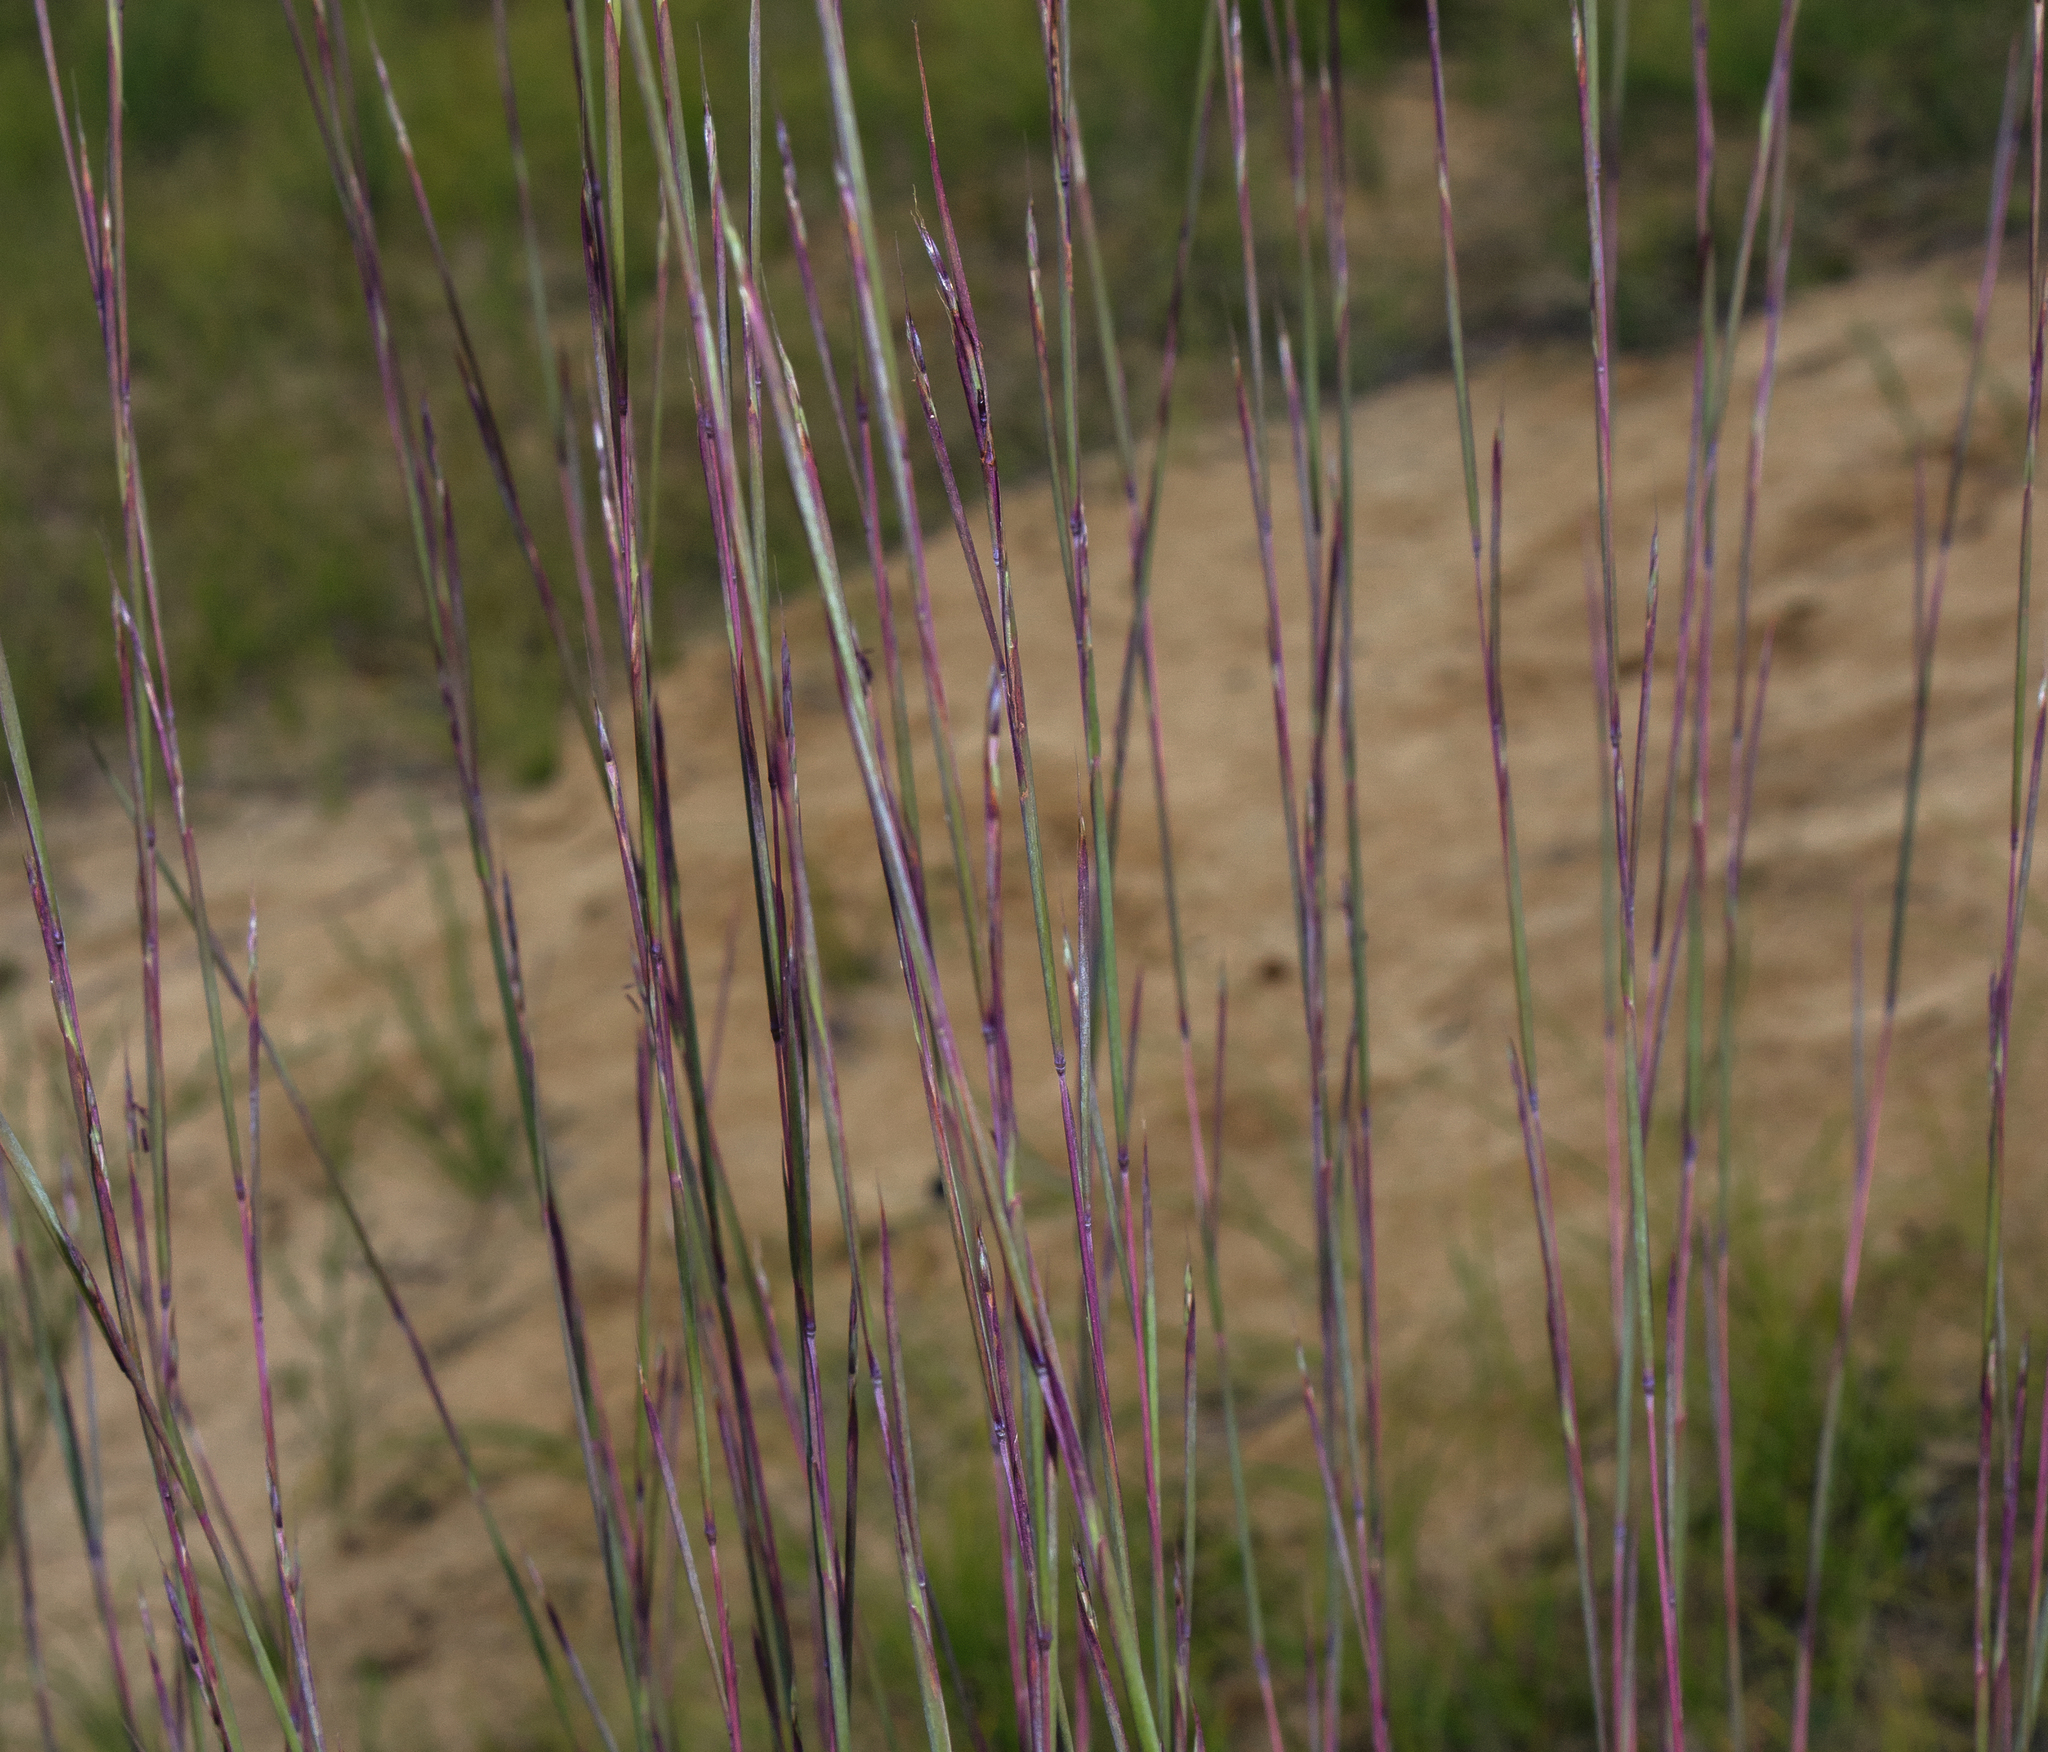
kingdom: Plantae
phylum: Tracheophyta
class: Liliopsida
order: Poales
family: Poaceae
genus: Schizachyrium
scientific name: Schizachyrium scoparium
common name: Little bluestem
